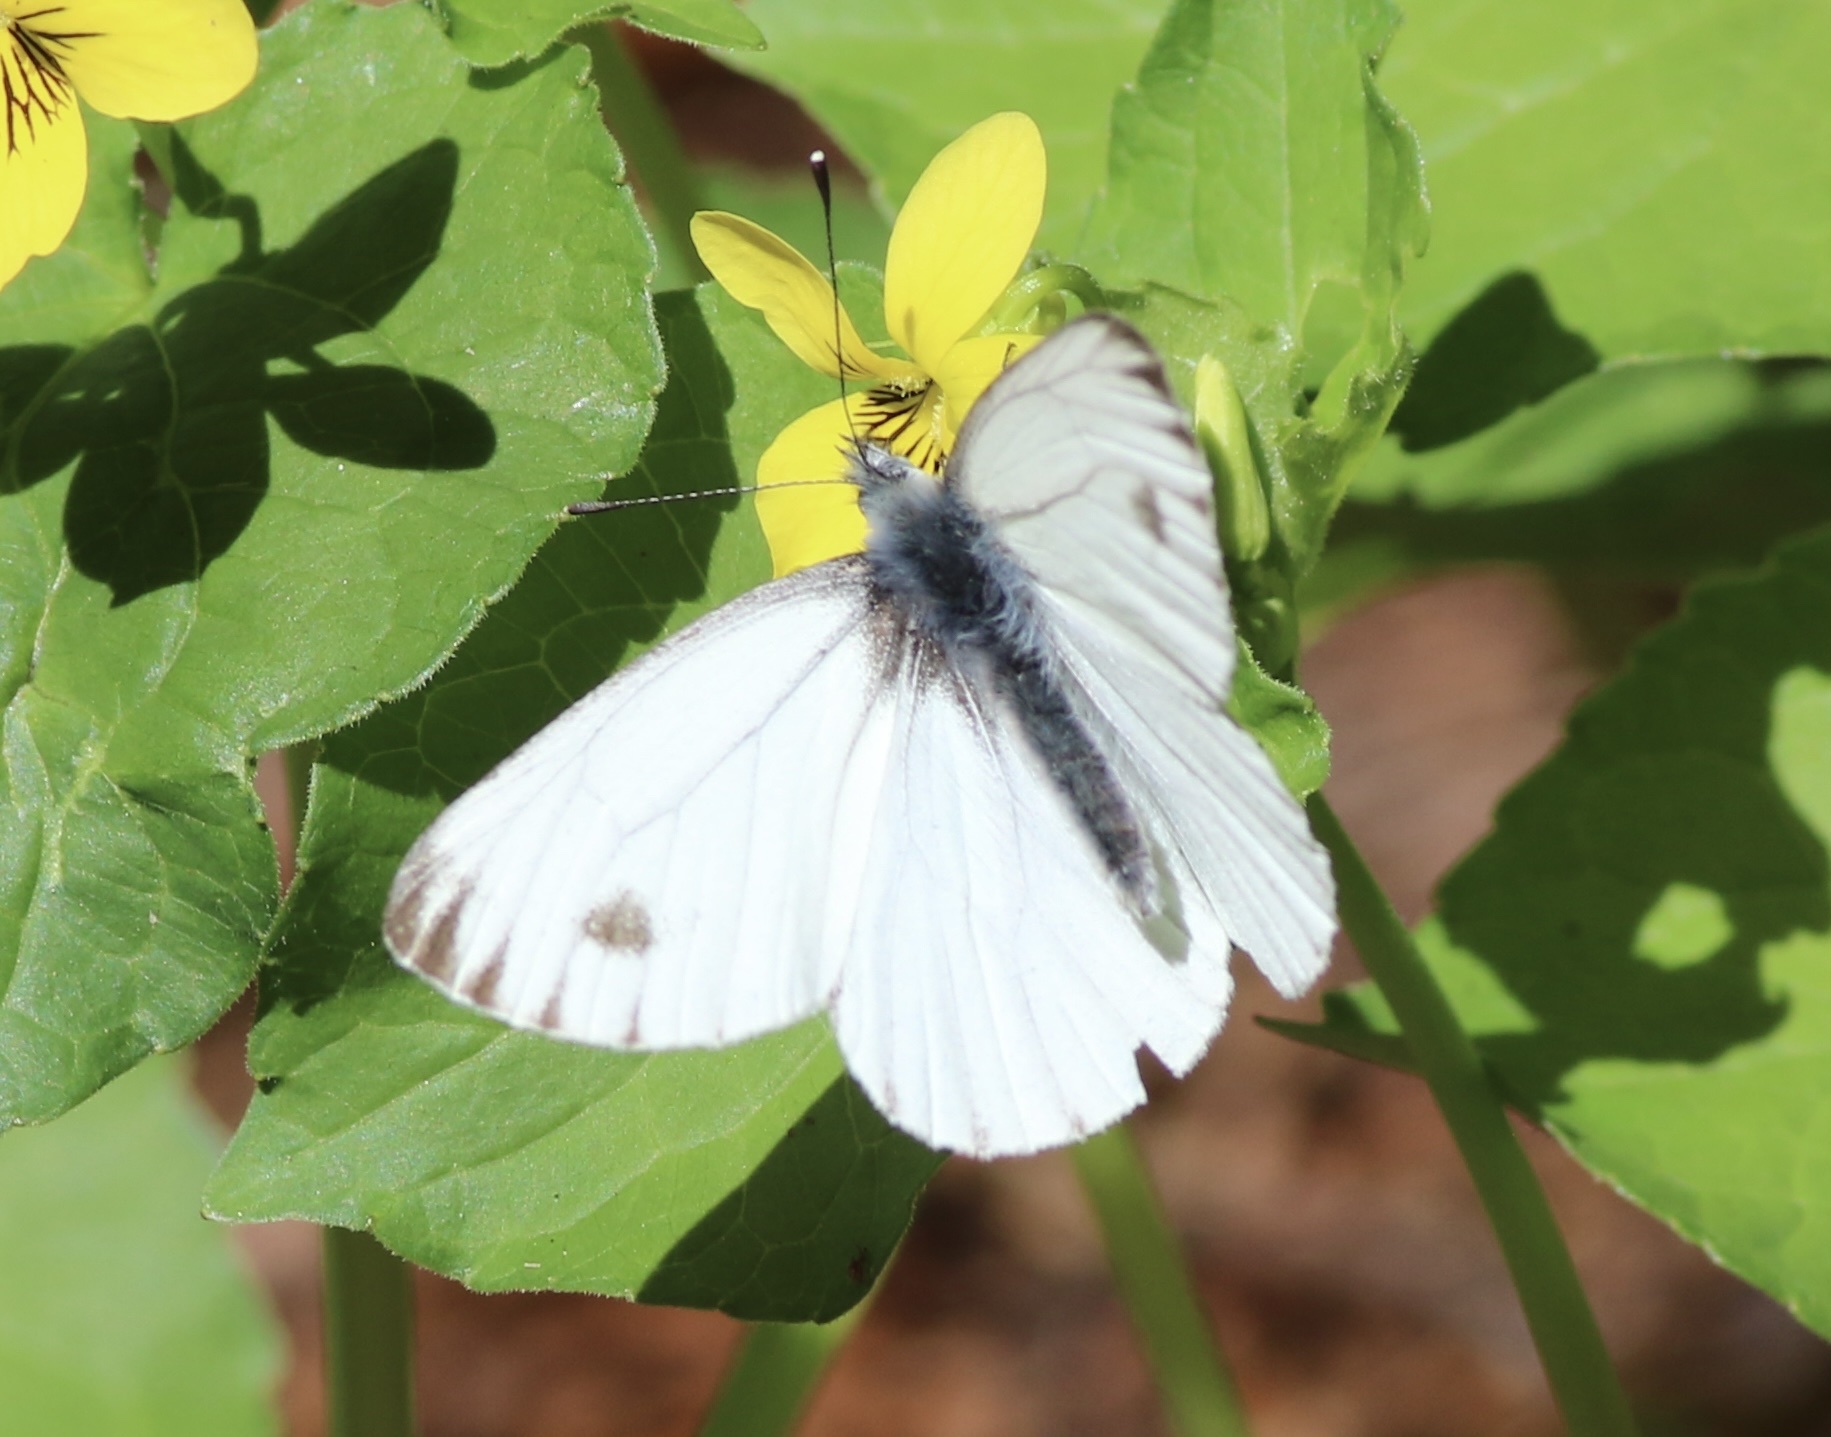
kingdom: Animalia
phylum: Arthropoda
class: Insecta
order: Lepidoptera
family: Pieridae
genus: Pieris
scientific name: Pieris marginalis
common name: Margined white
